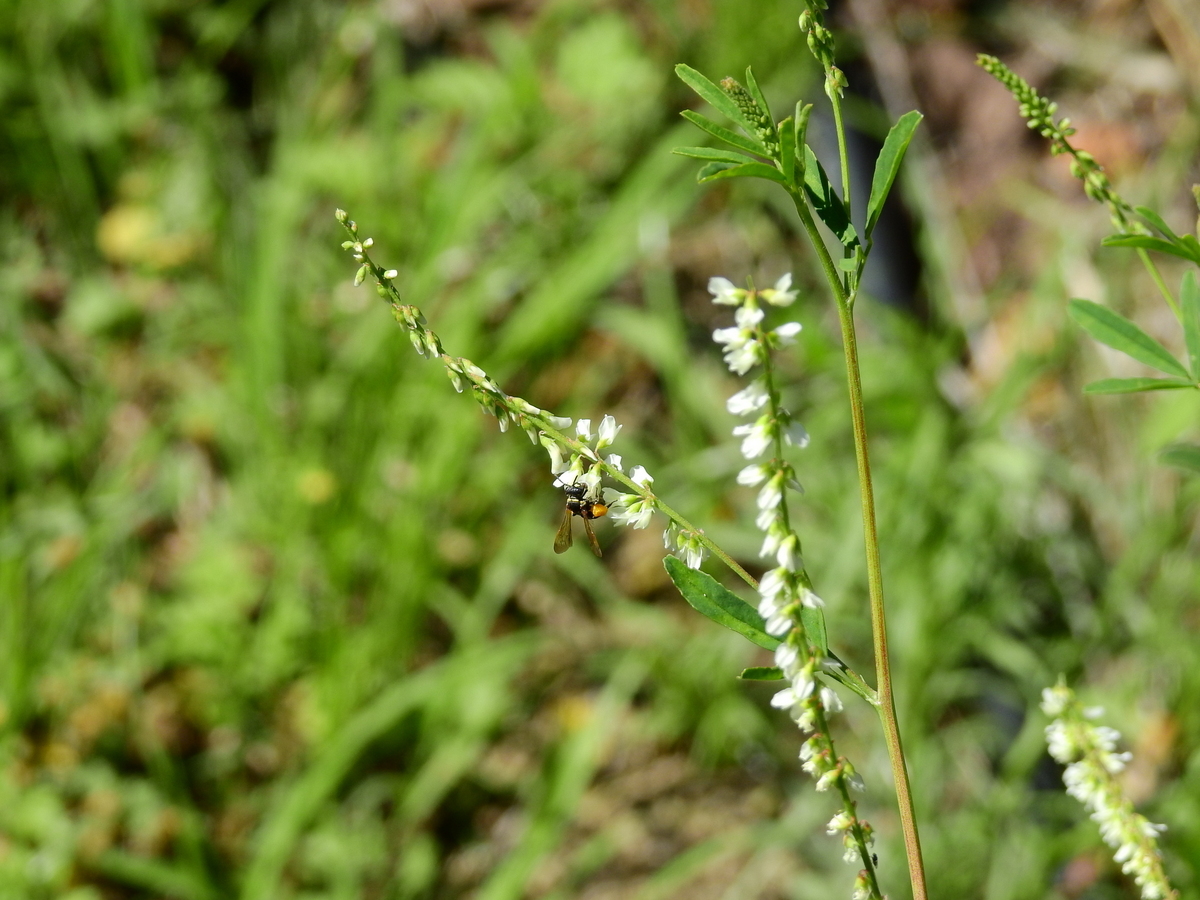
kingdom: Plantae
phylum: Tracheophyta
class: Magnoliopsida
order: Fabales
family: Fabaceae
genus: Melilotus
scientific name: Melilotus albus
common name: White melilot
